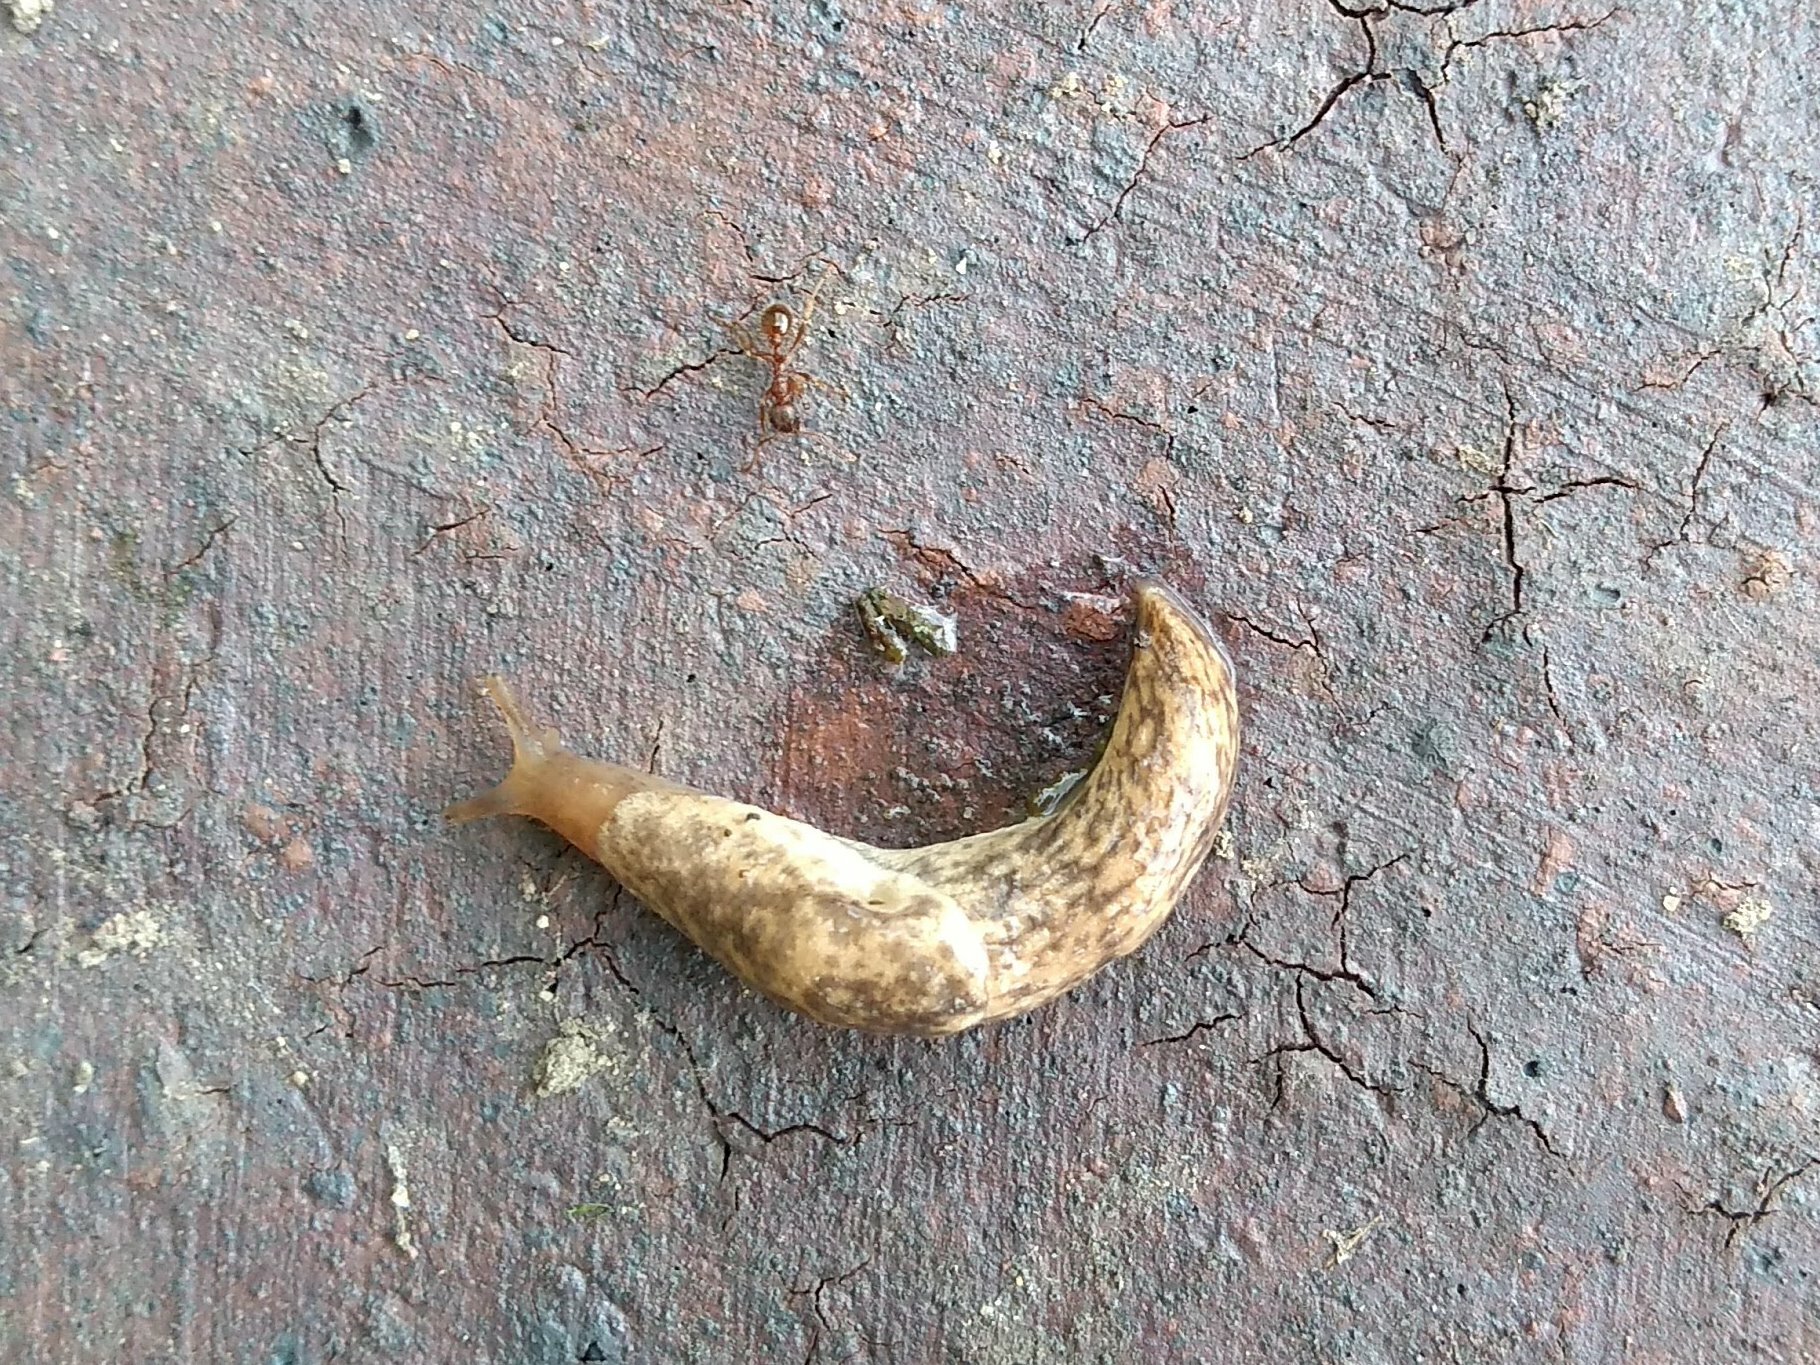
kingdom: Animalia
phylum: Mollusca
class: Gastropoda
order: Stylommatophora
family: Agriolimacidae
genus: Deroceras
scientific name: Deroceras reticulatum
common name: Gray field slug
